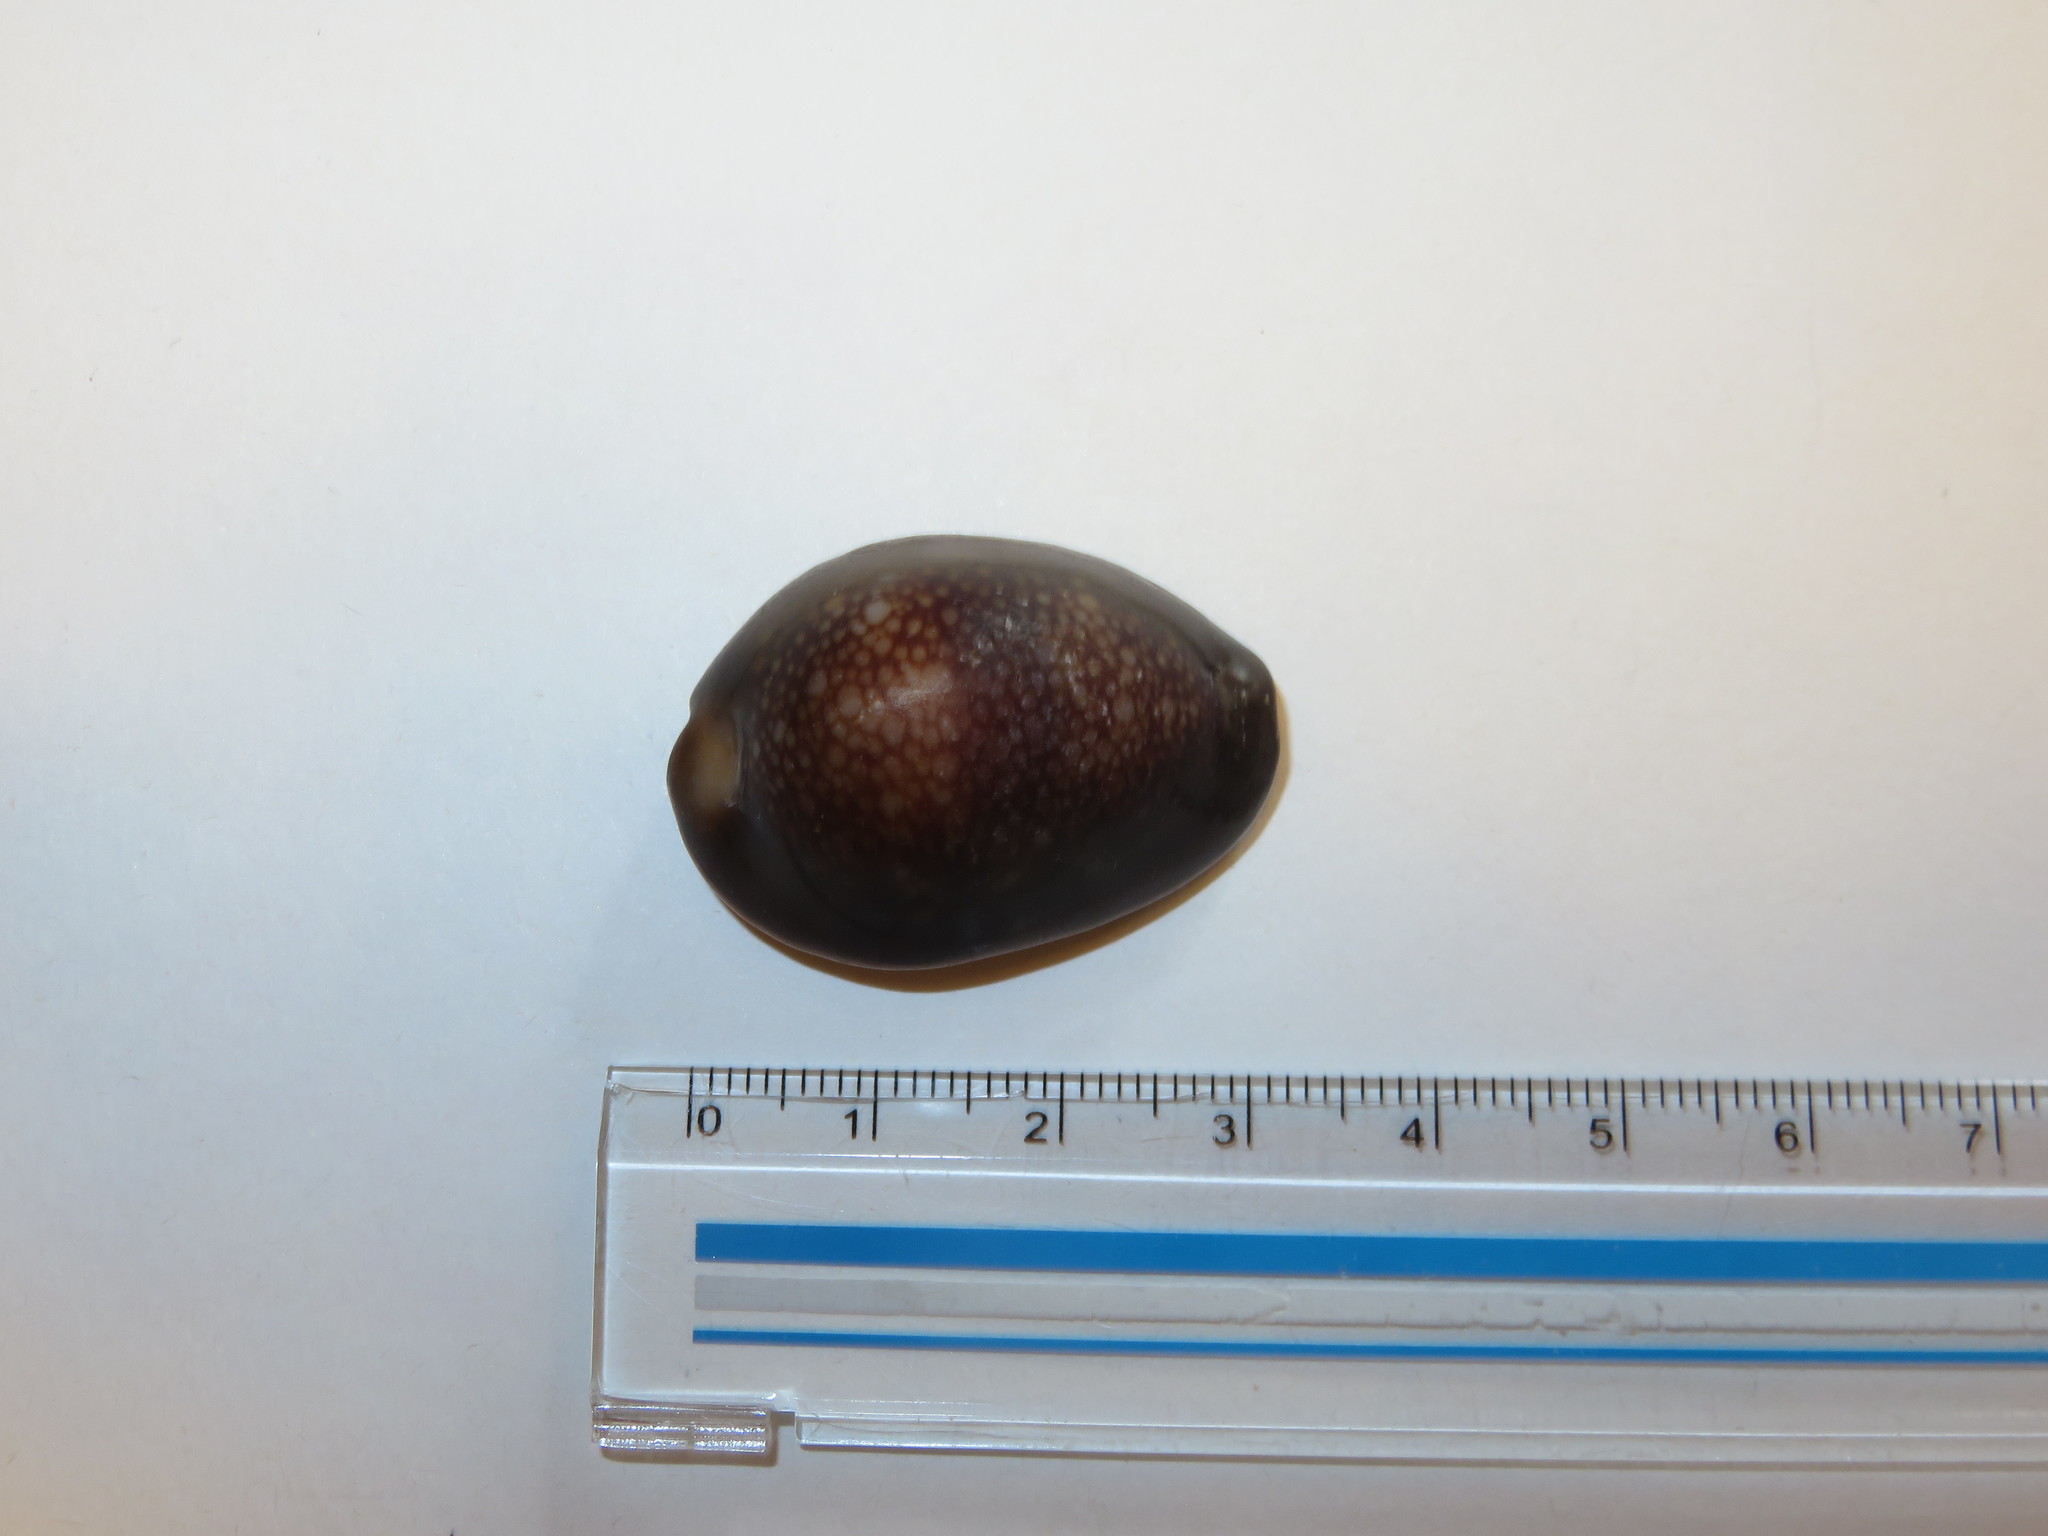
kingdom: Animalia
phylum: Mollusca
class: Gastropoda
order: Littorinimorpha
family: Cypraeidae
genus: Monetaria
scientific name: Monetaria caputserpentis
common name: Serpent's head cowrie
